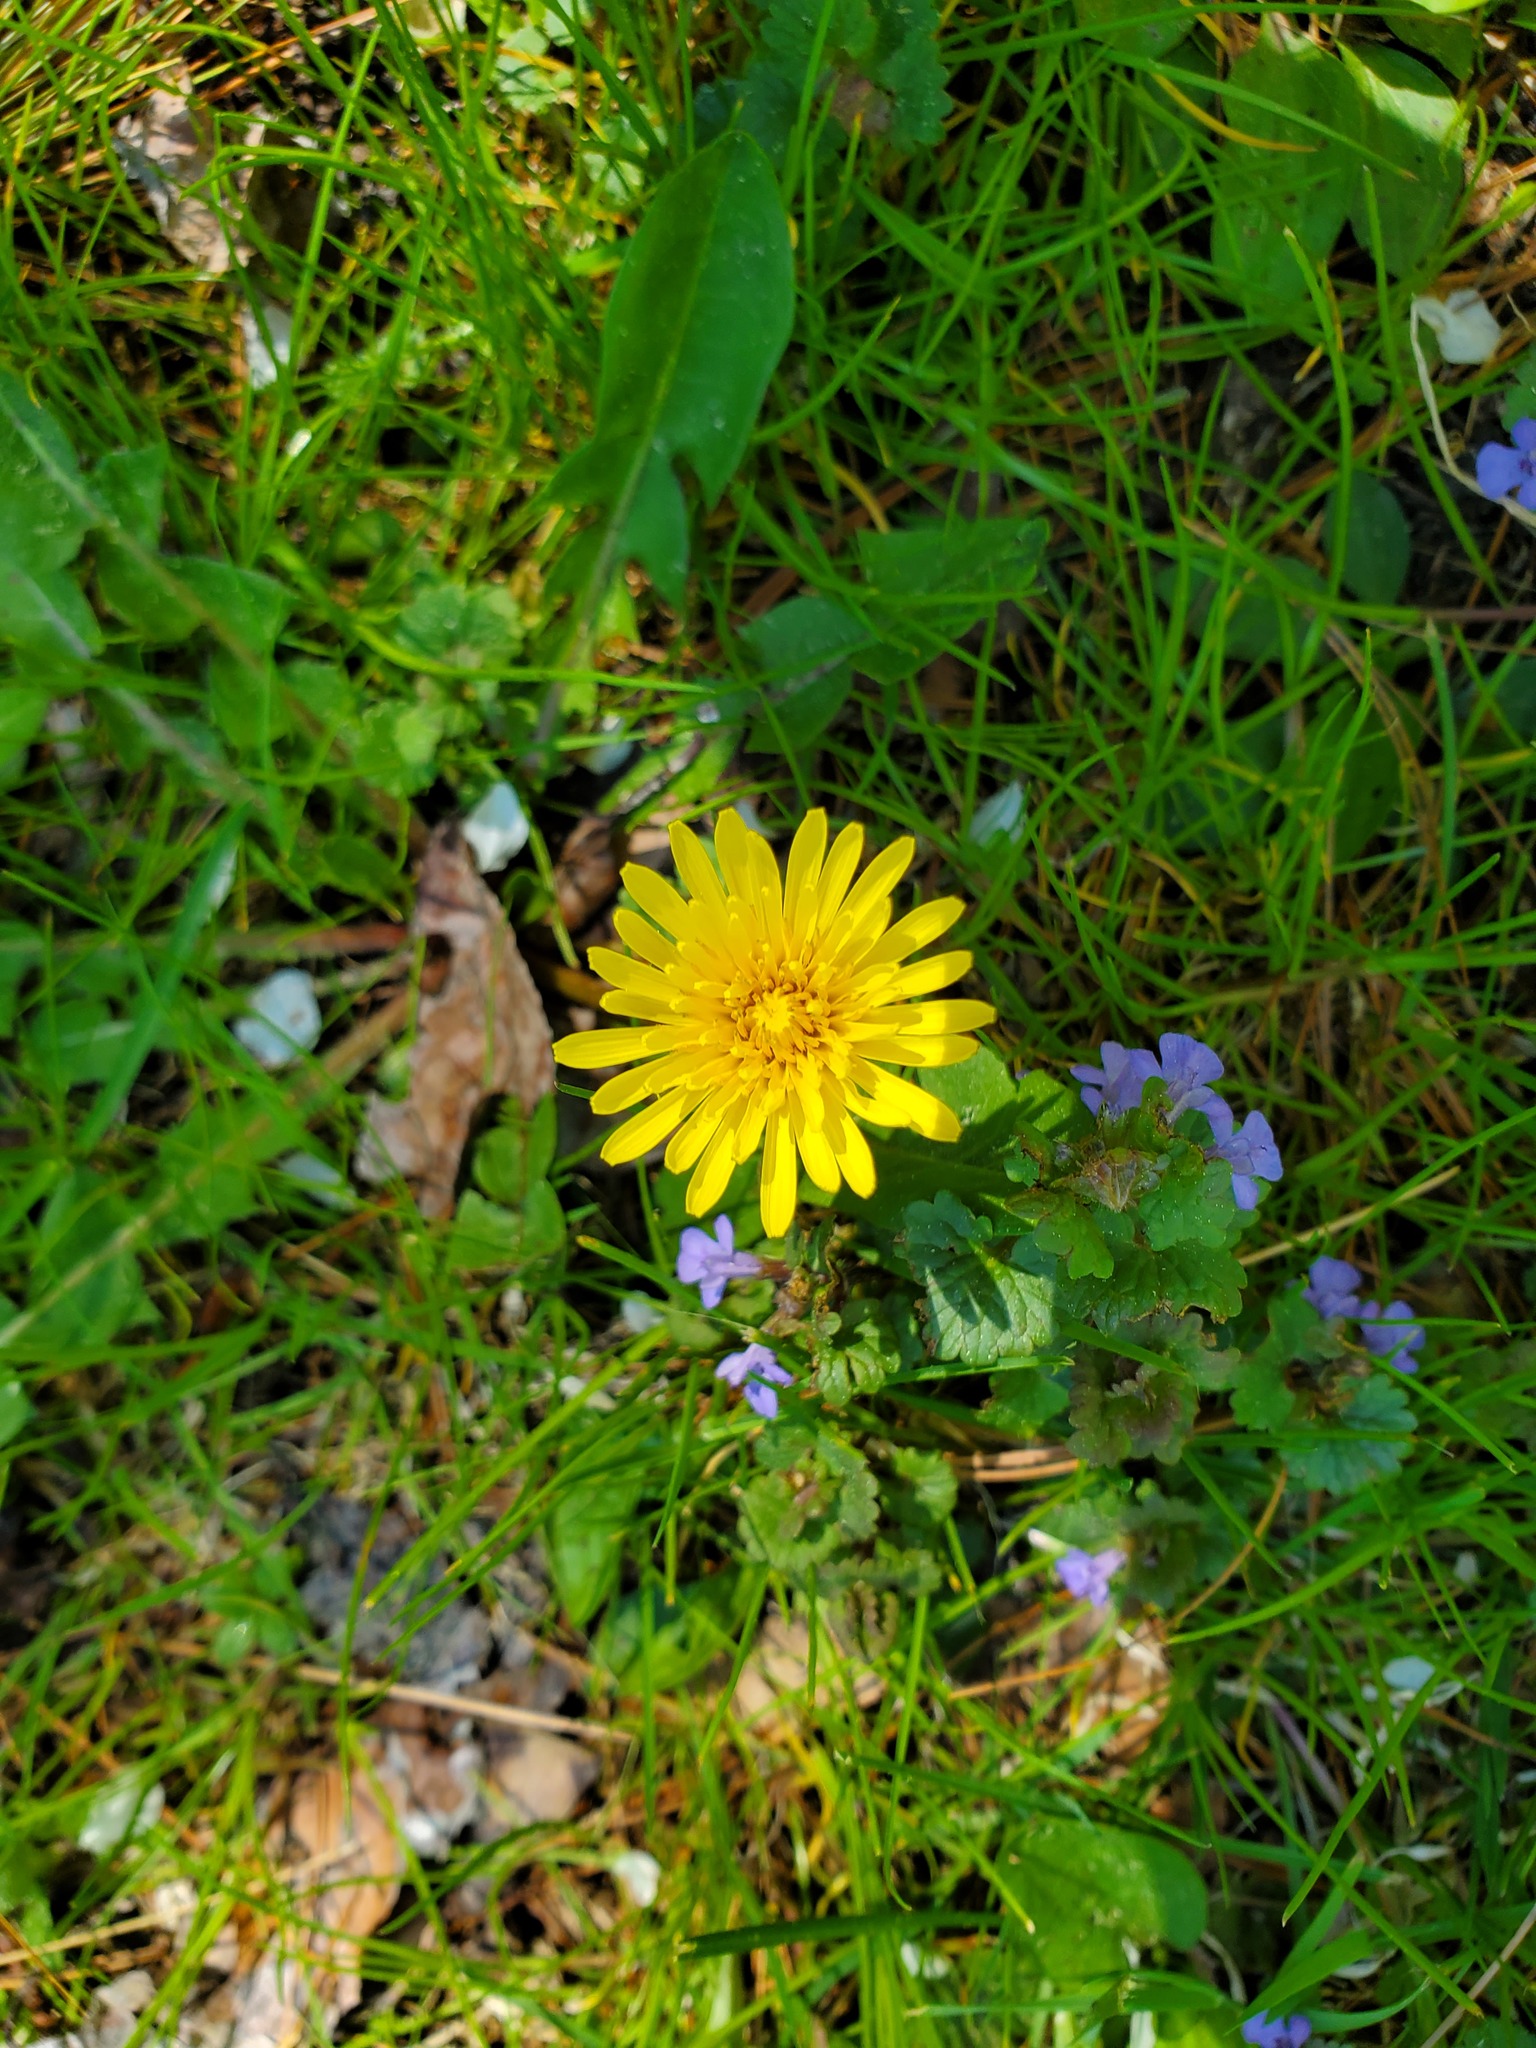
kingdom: Plantae
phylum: Tracheophyta
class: Magnoliopsida
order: Asterales
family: Asteraceae
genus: Taraxacum
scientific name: Taraxacum officinale
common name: Common dandelion
